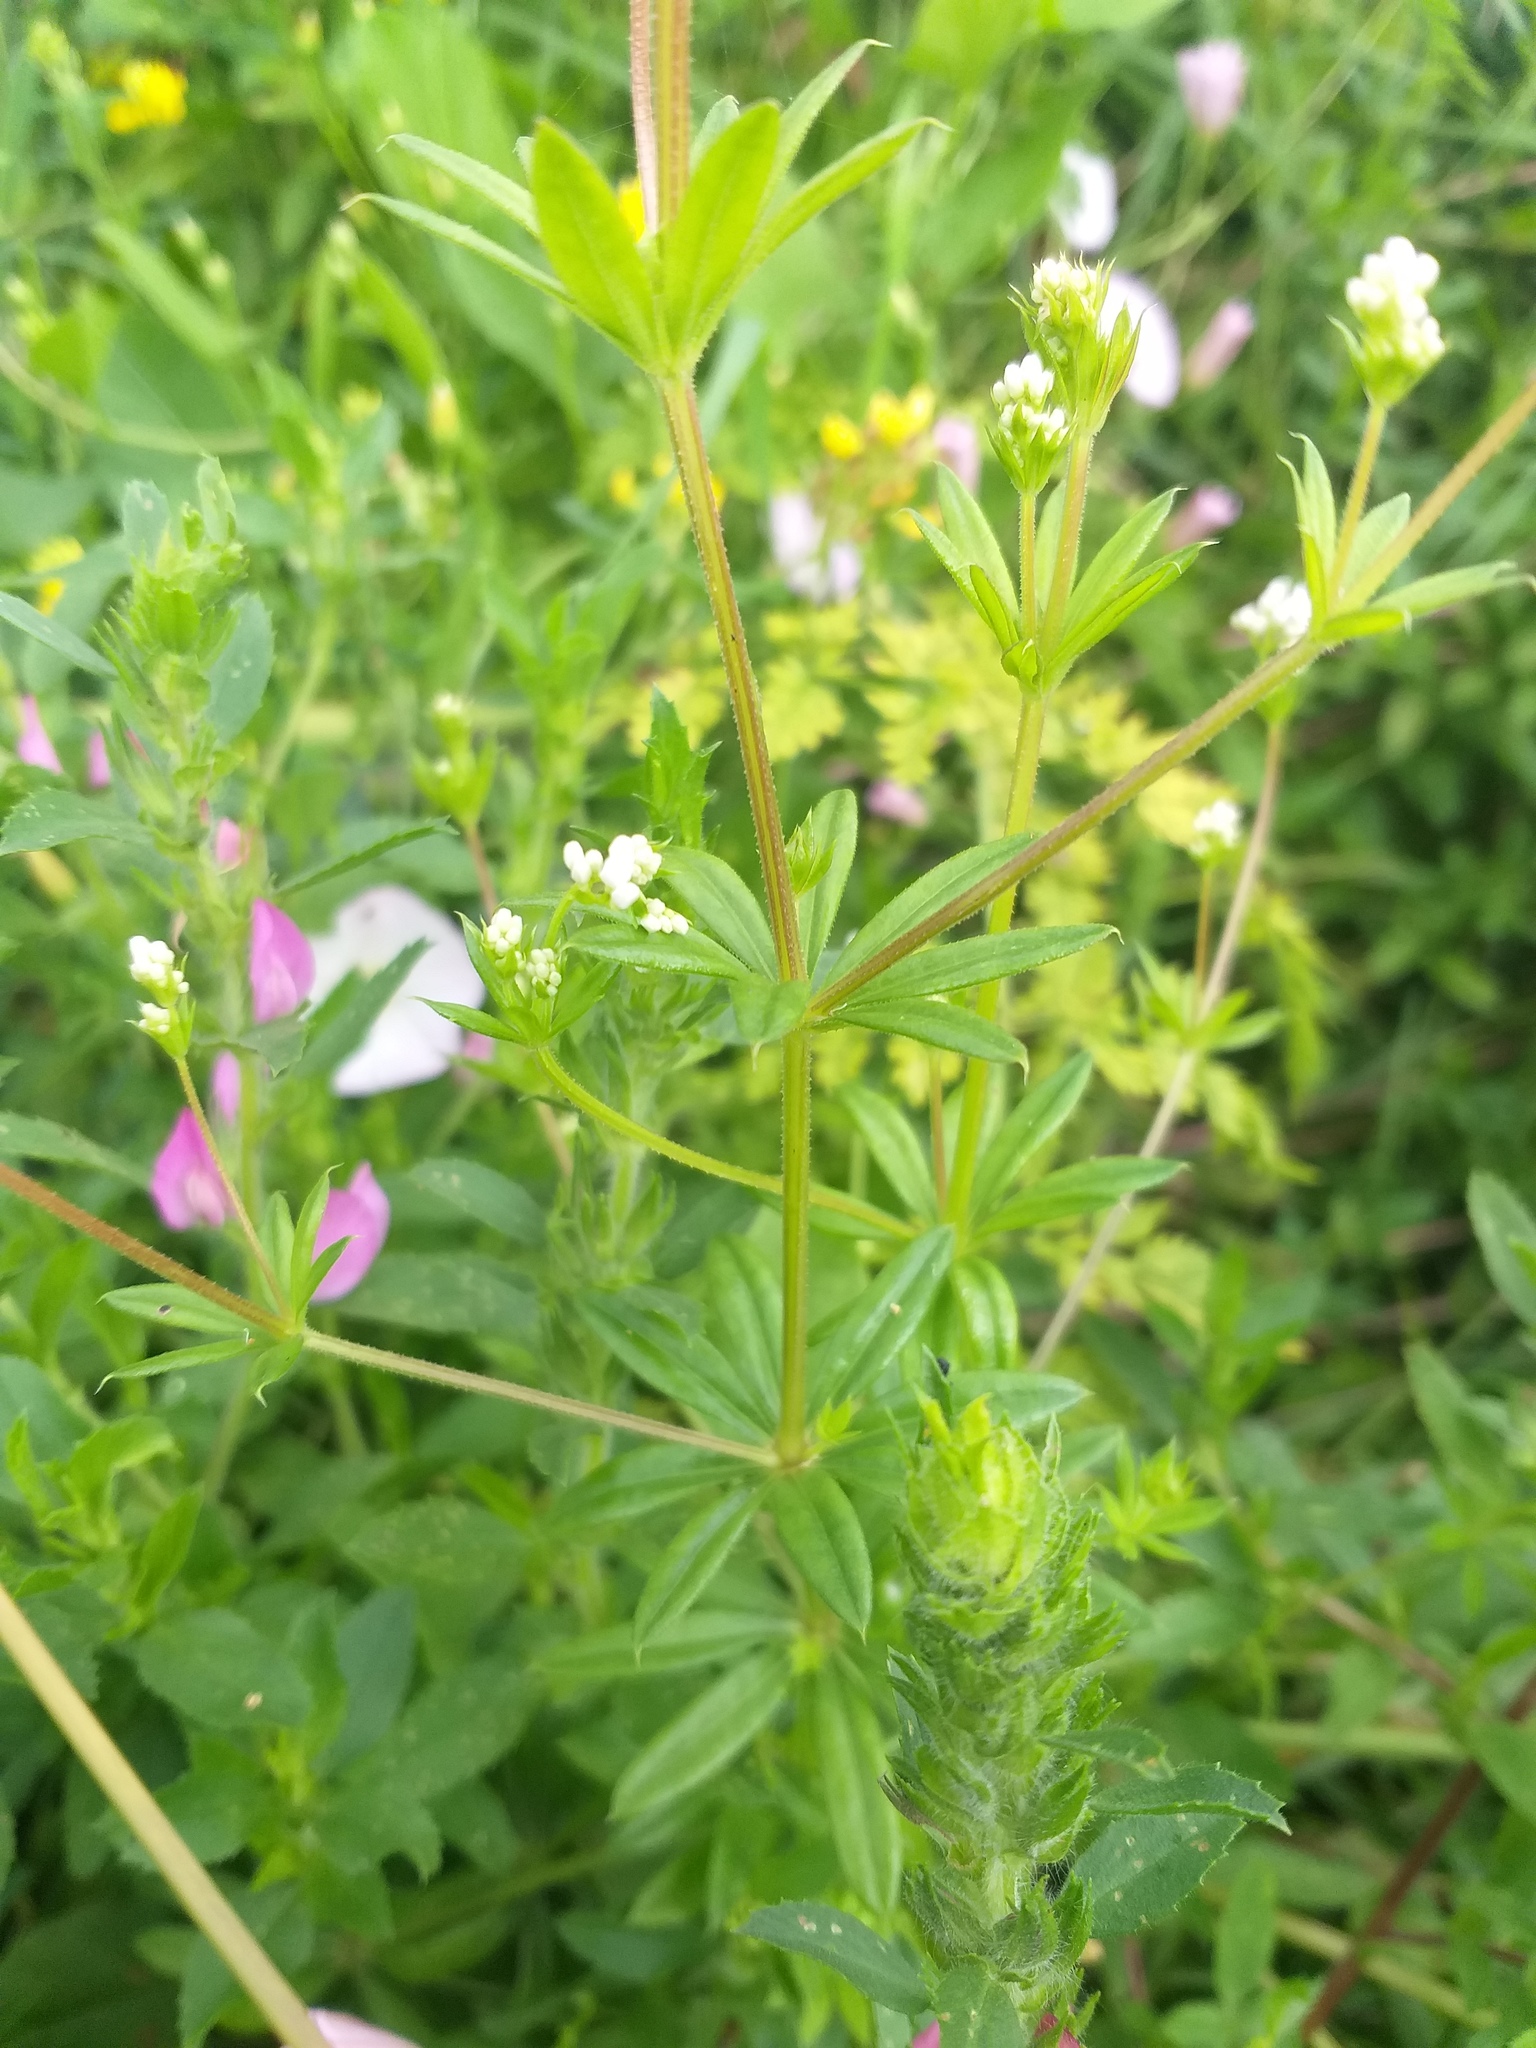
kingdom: Plantae
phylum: Tracheophyta
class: Magnoliopsida
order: Gentianales
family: Rubiaceae
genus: Galium
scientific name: Galium rivale
